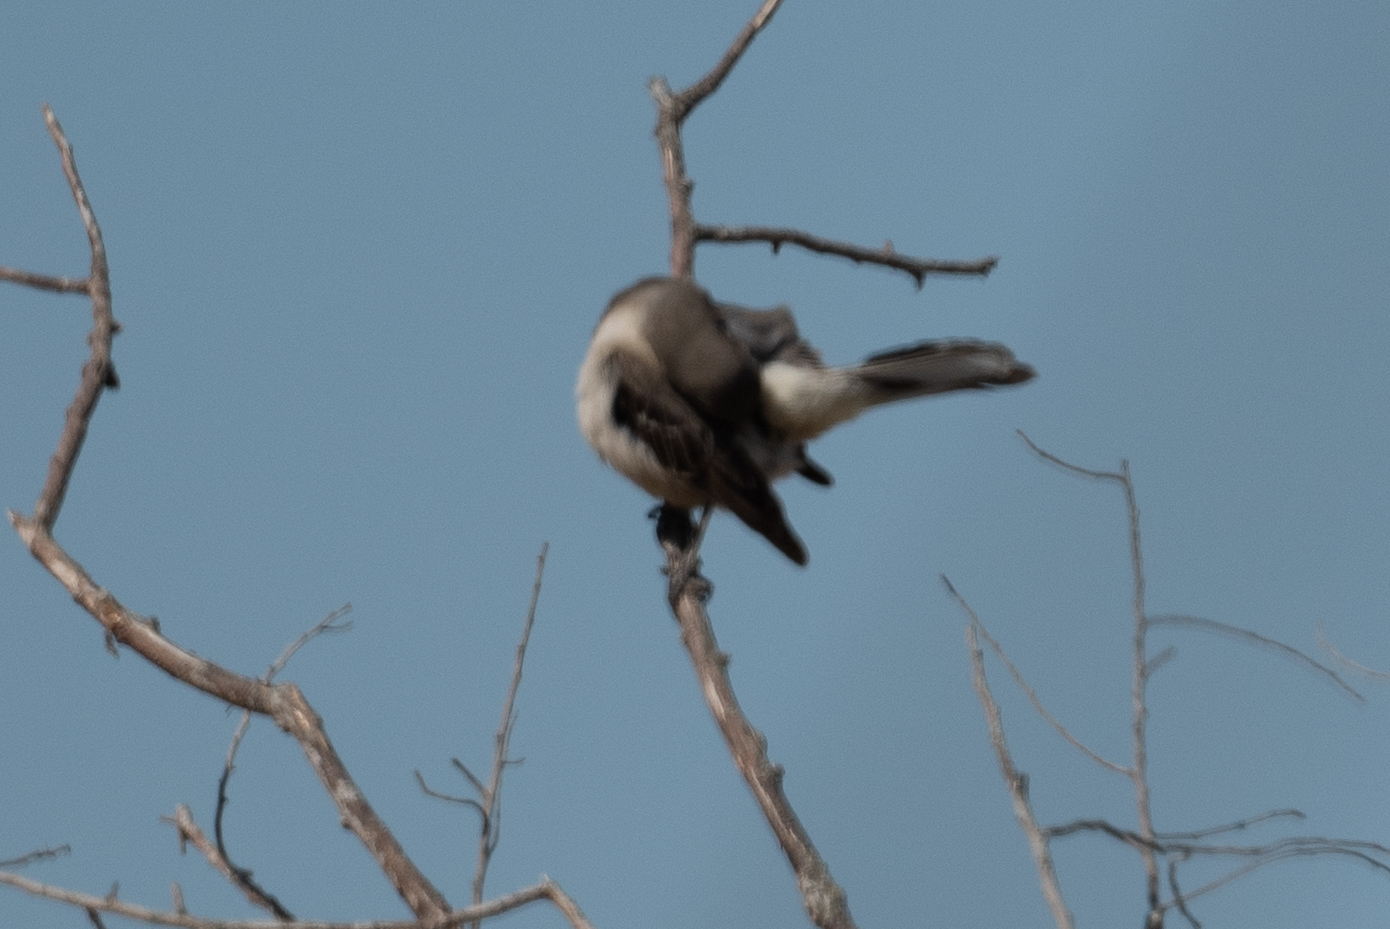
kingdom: Animalia
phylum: Chordata
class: Aves
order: Passeriformes
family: Mimidae
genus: Mimus
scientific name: Mimus polyglottos
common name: Northern mockingbird
